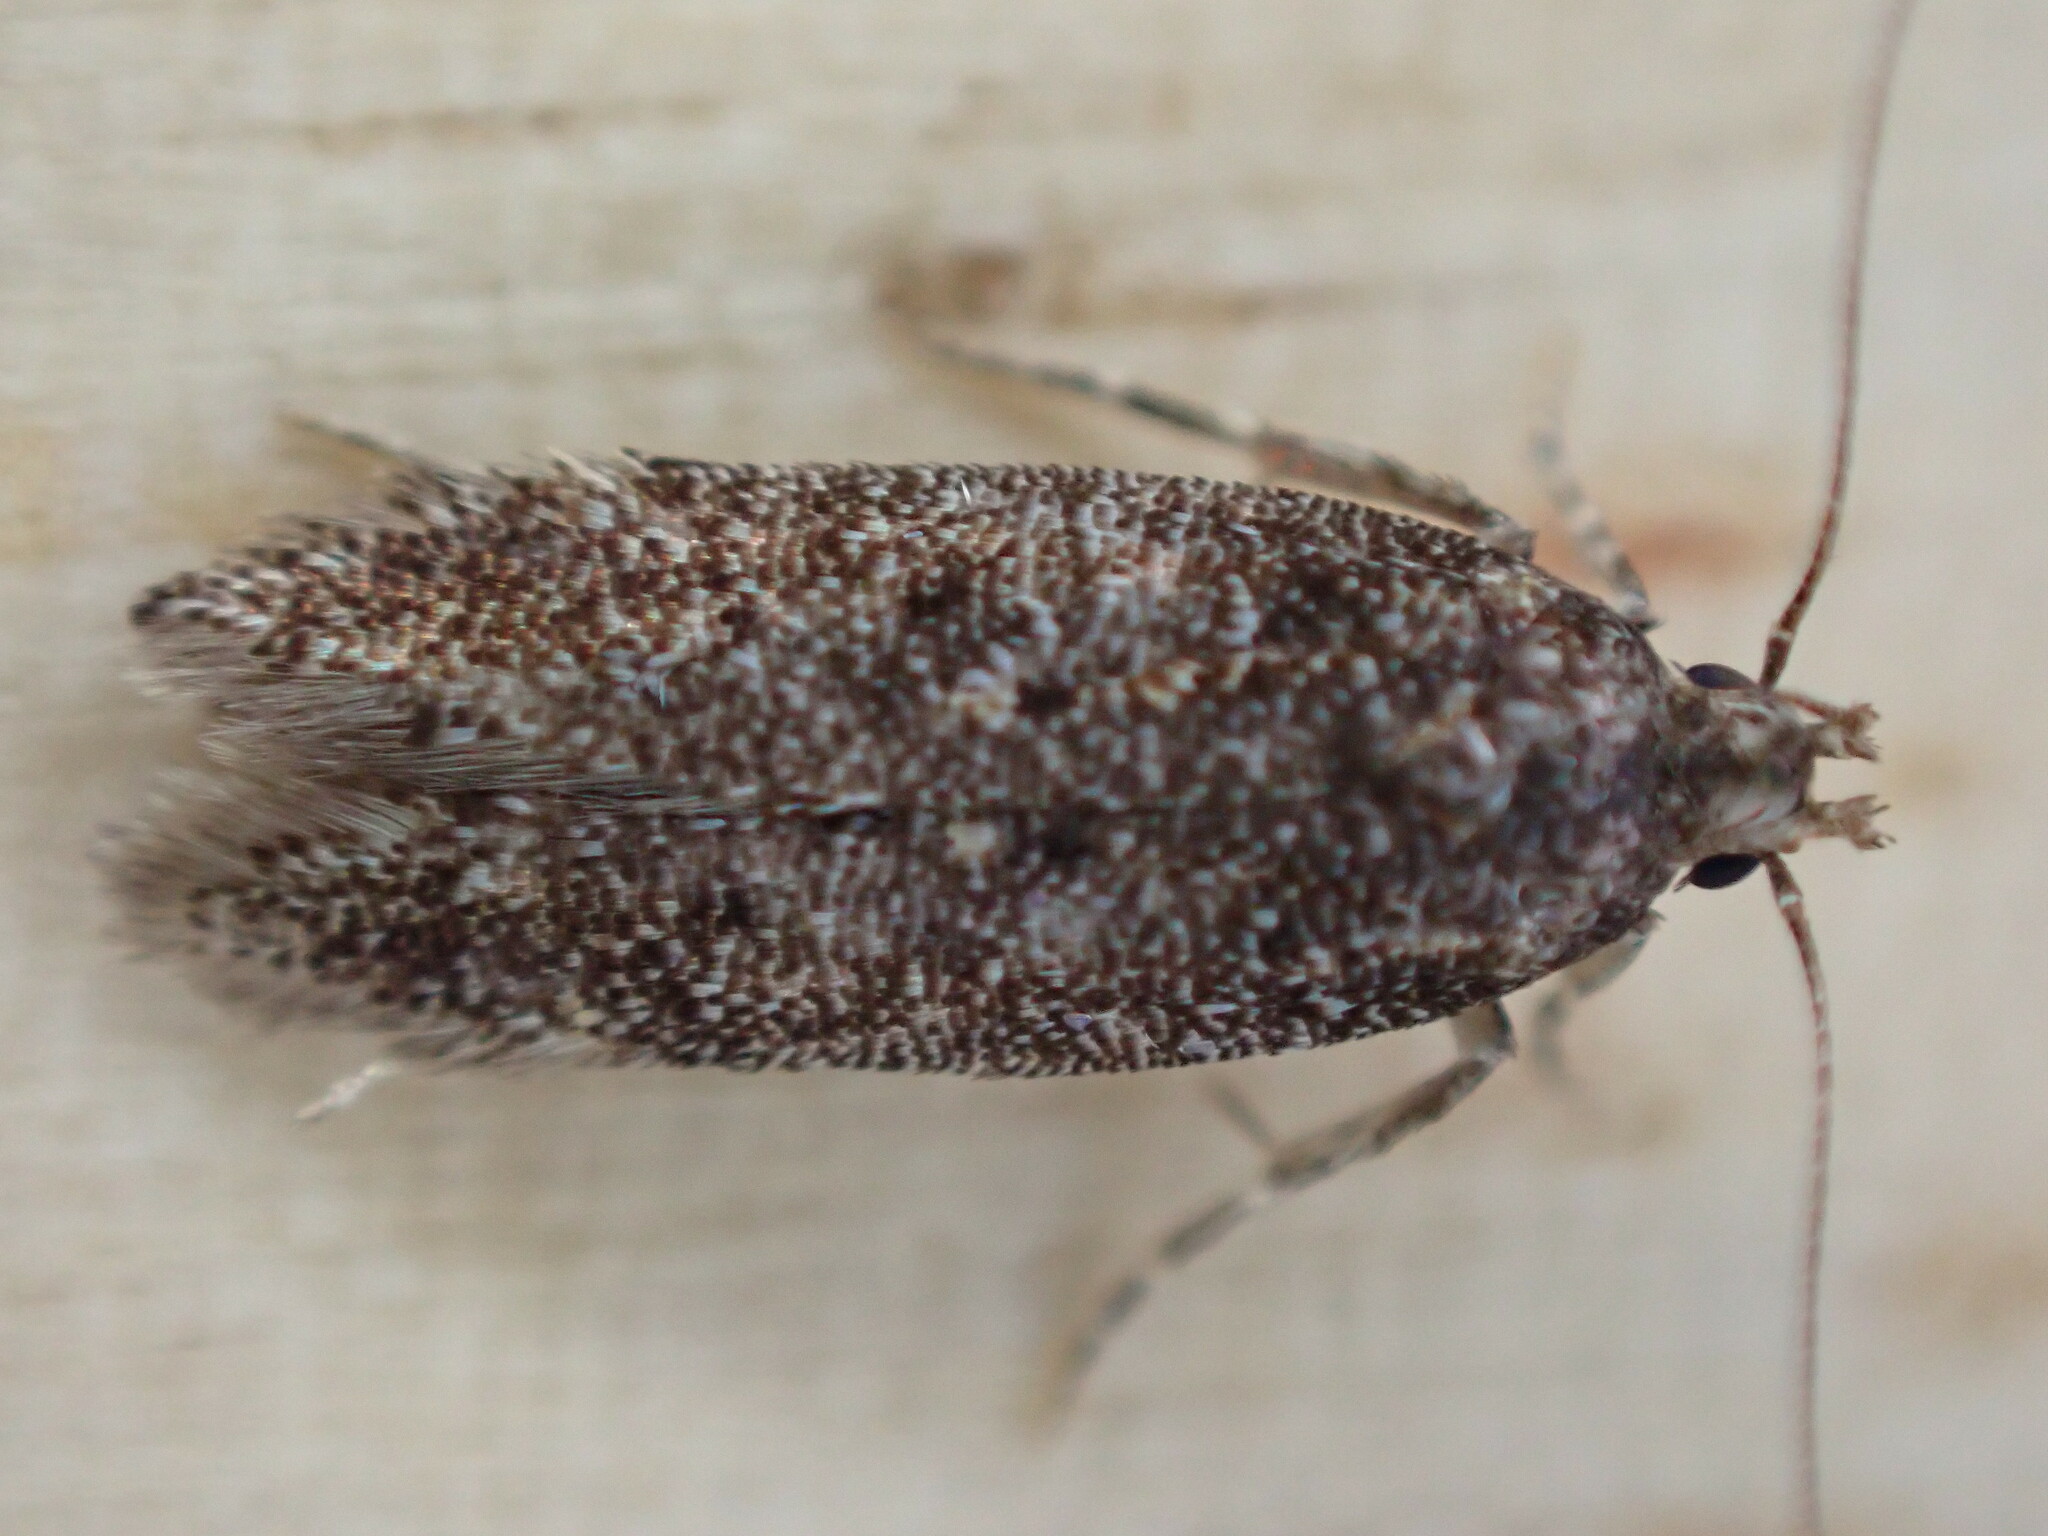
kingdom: Animalia
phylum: Arthropoda
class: Insecta
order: Lepidoptera
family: Gelechiidae
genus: Bryotropha
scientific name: Bryotropha affinis
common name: Dark groundling
